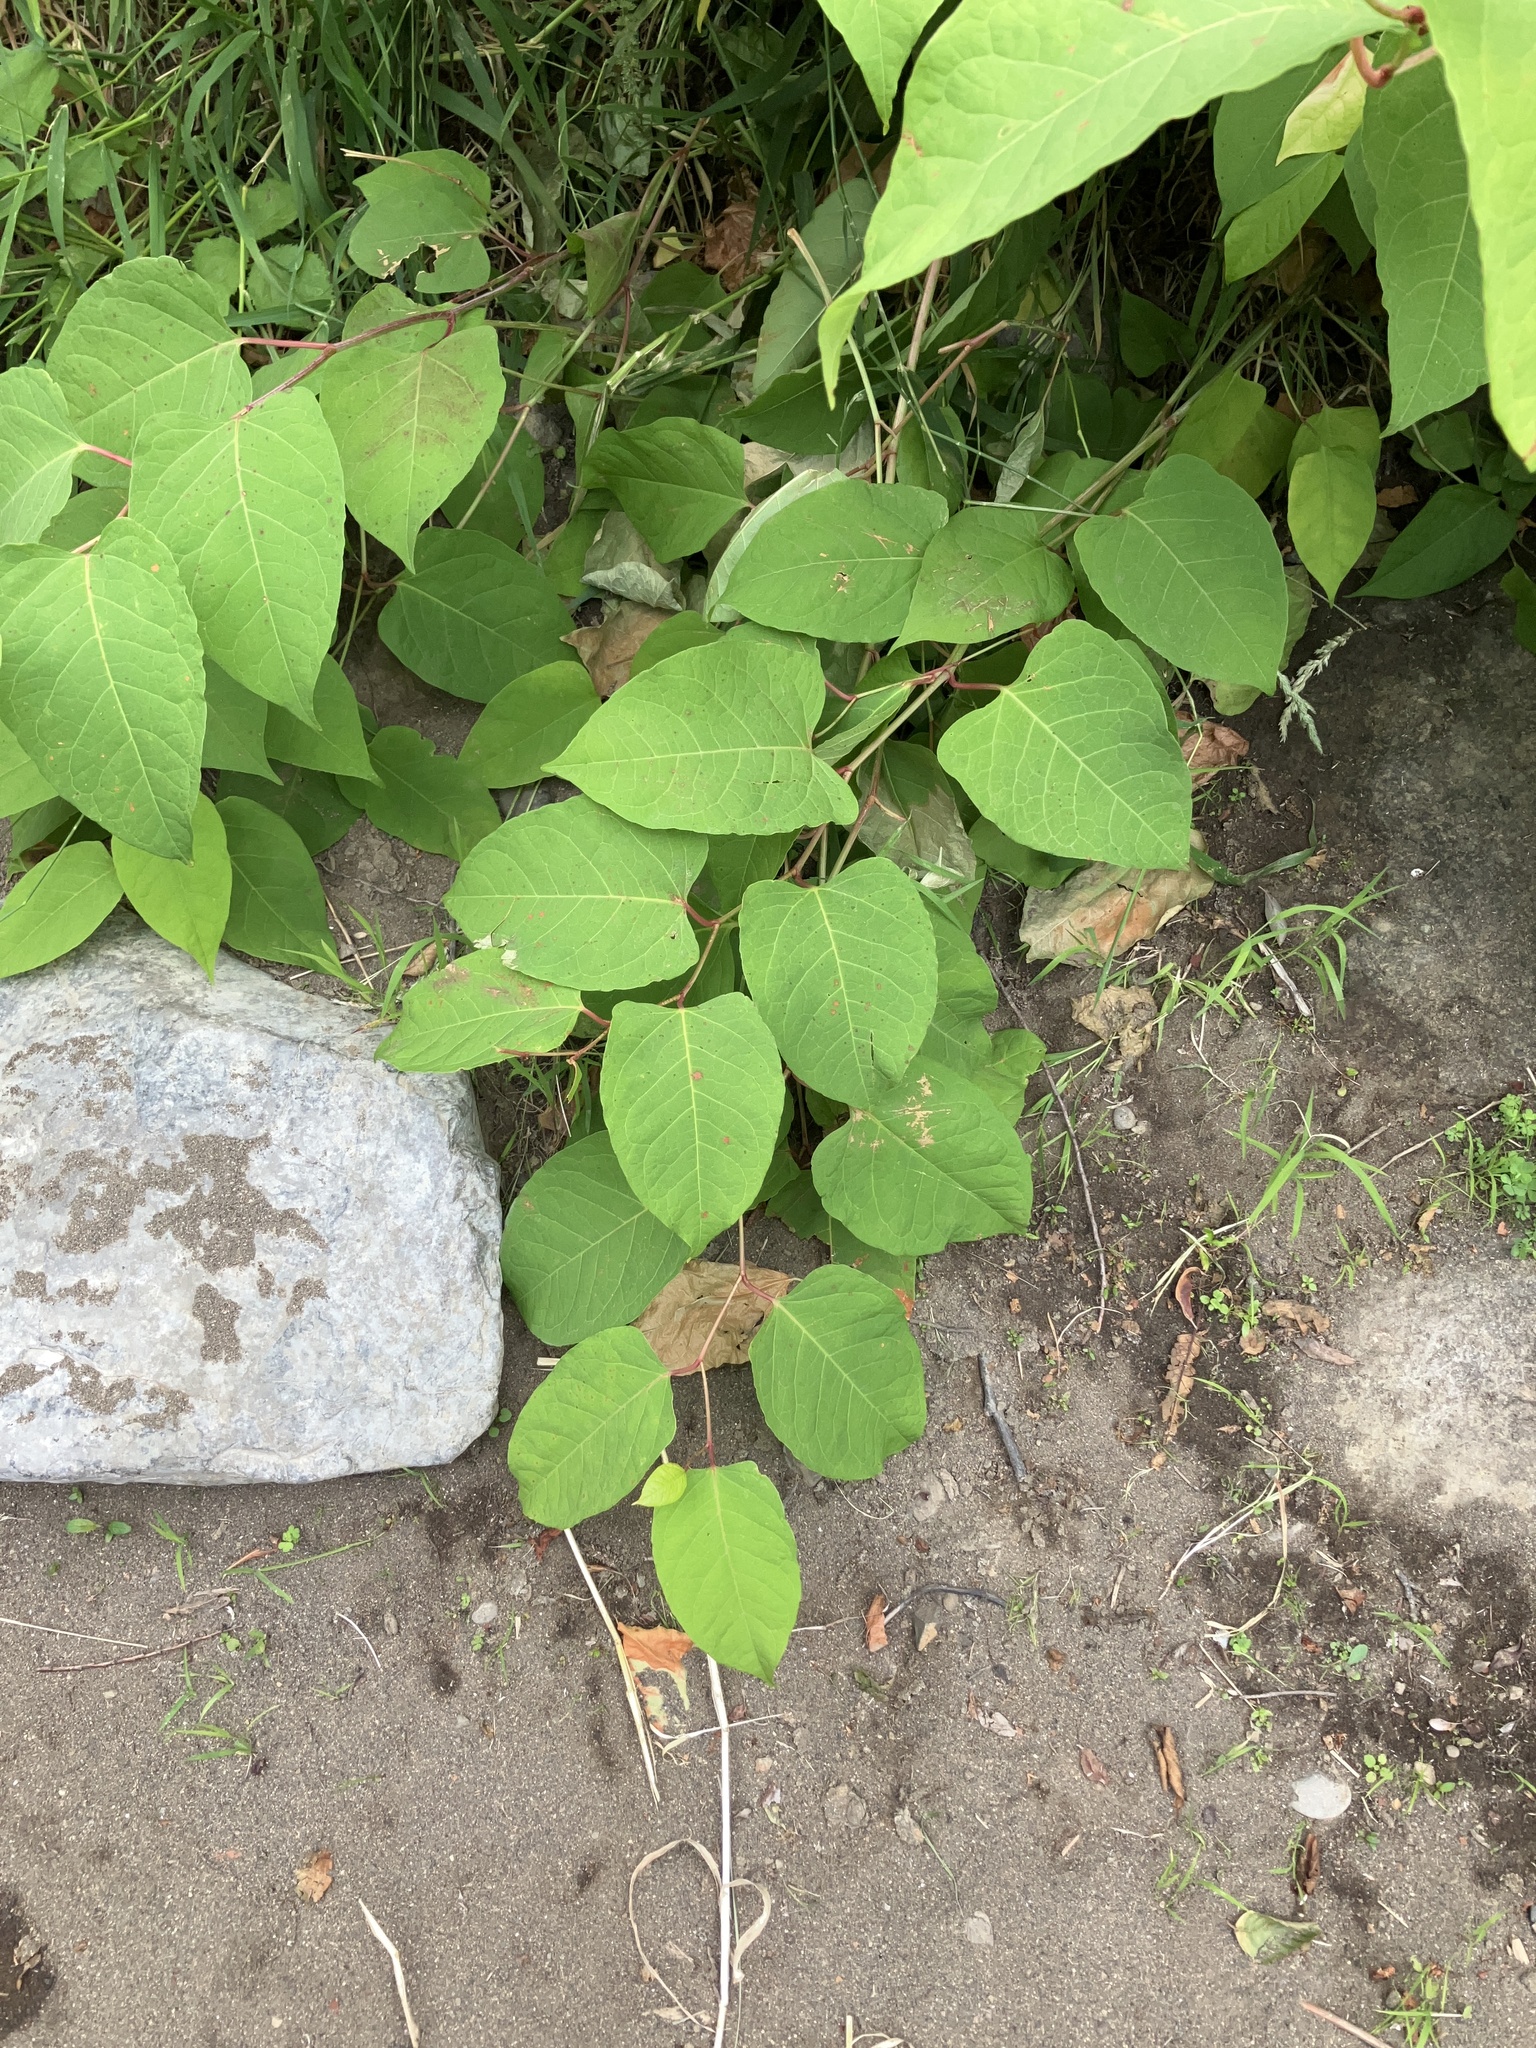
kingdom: Plantae
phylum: Tracheophyta
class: Magnoliopsida
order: Caryophyllales
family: Polygonaceae
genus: Reynoutria
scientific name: Reynoutria bohemica
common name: Bohemian knotweed
